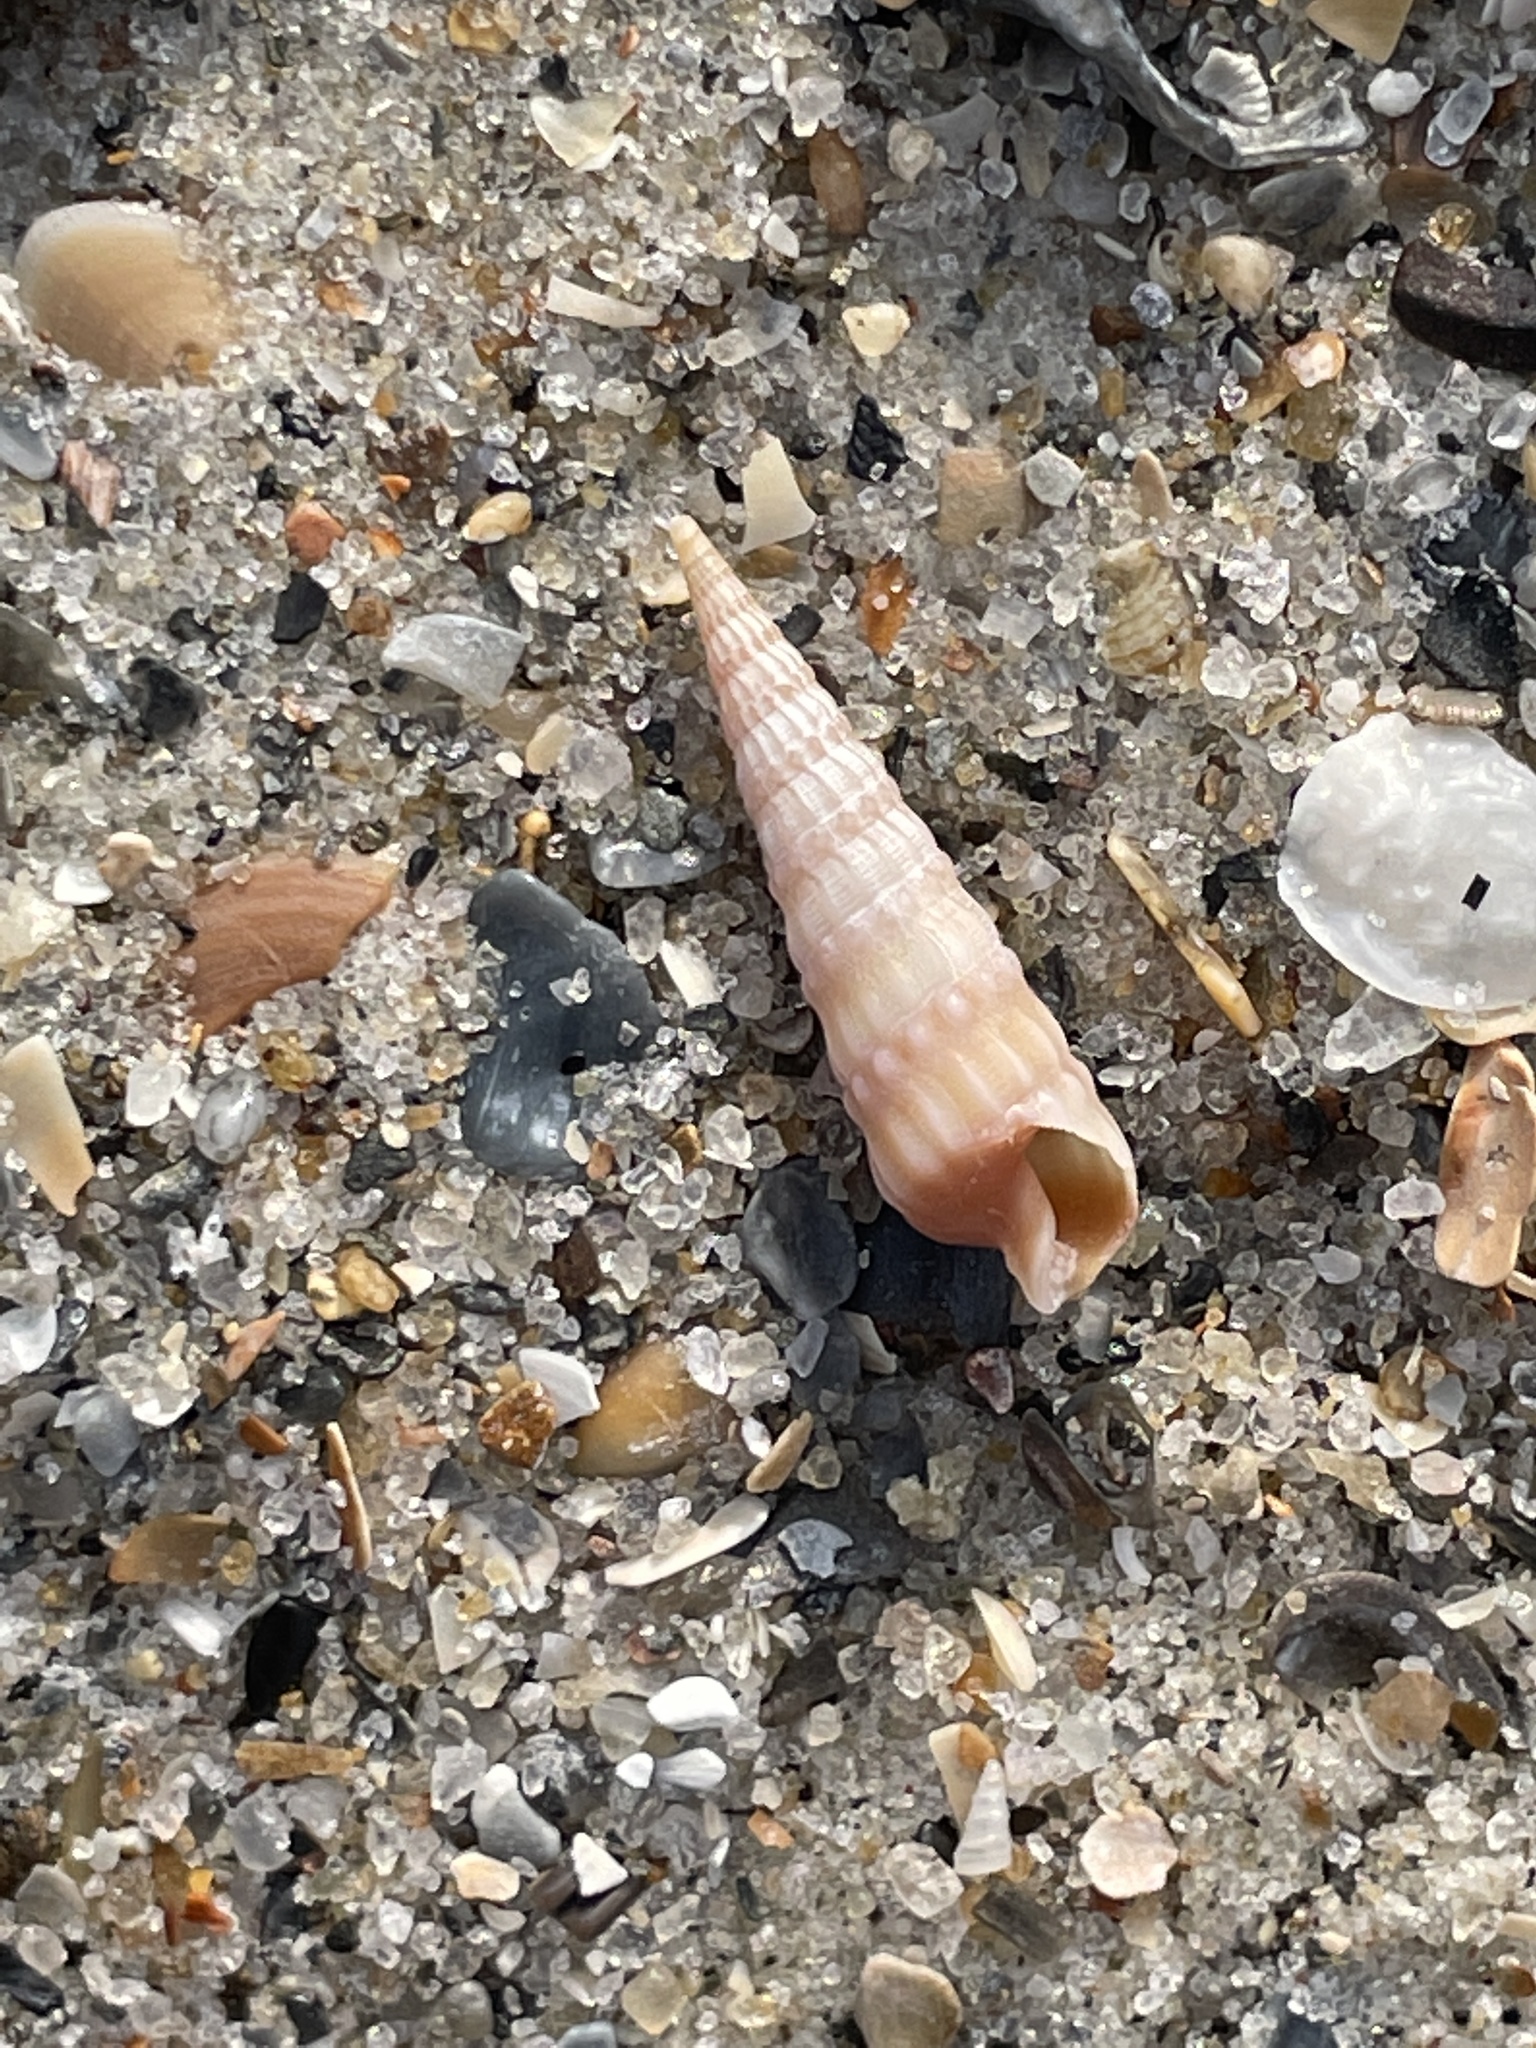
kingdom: Animalia
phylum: Mollusca
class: Gastropoda
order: Neogastropoda
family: Terebridae
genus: Neoterebra
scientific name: Neoterebra dislocata
